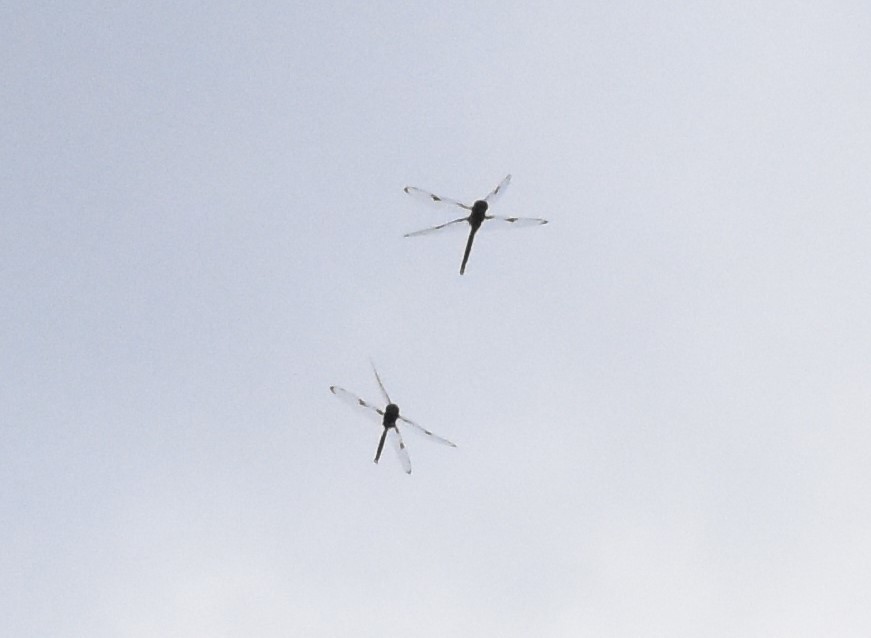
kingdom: Animalia
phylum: Arthropoda
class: Insecta
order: Odonata
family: Corduliidae
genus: Epitheca
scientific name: Epitheca princeps
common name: Prince baskettail
